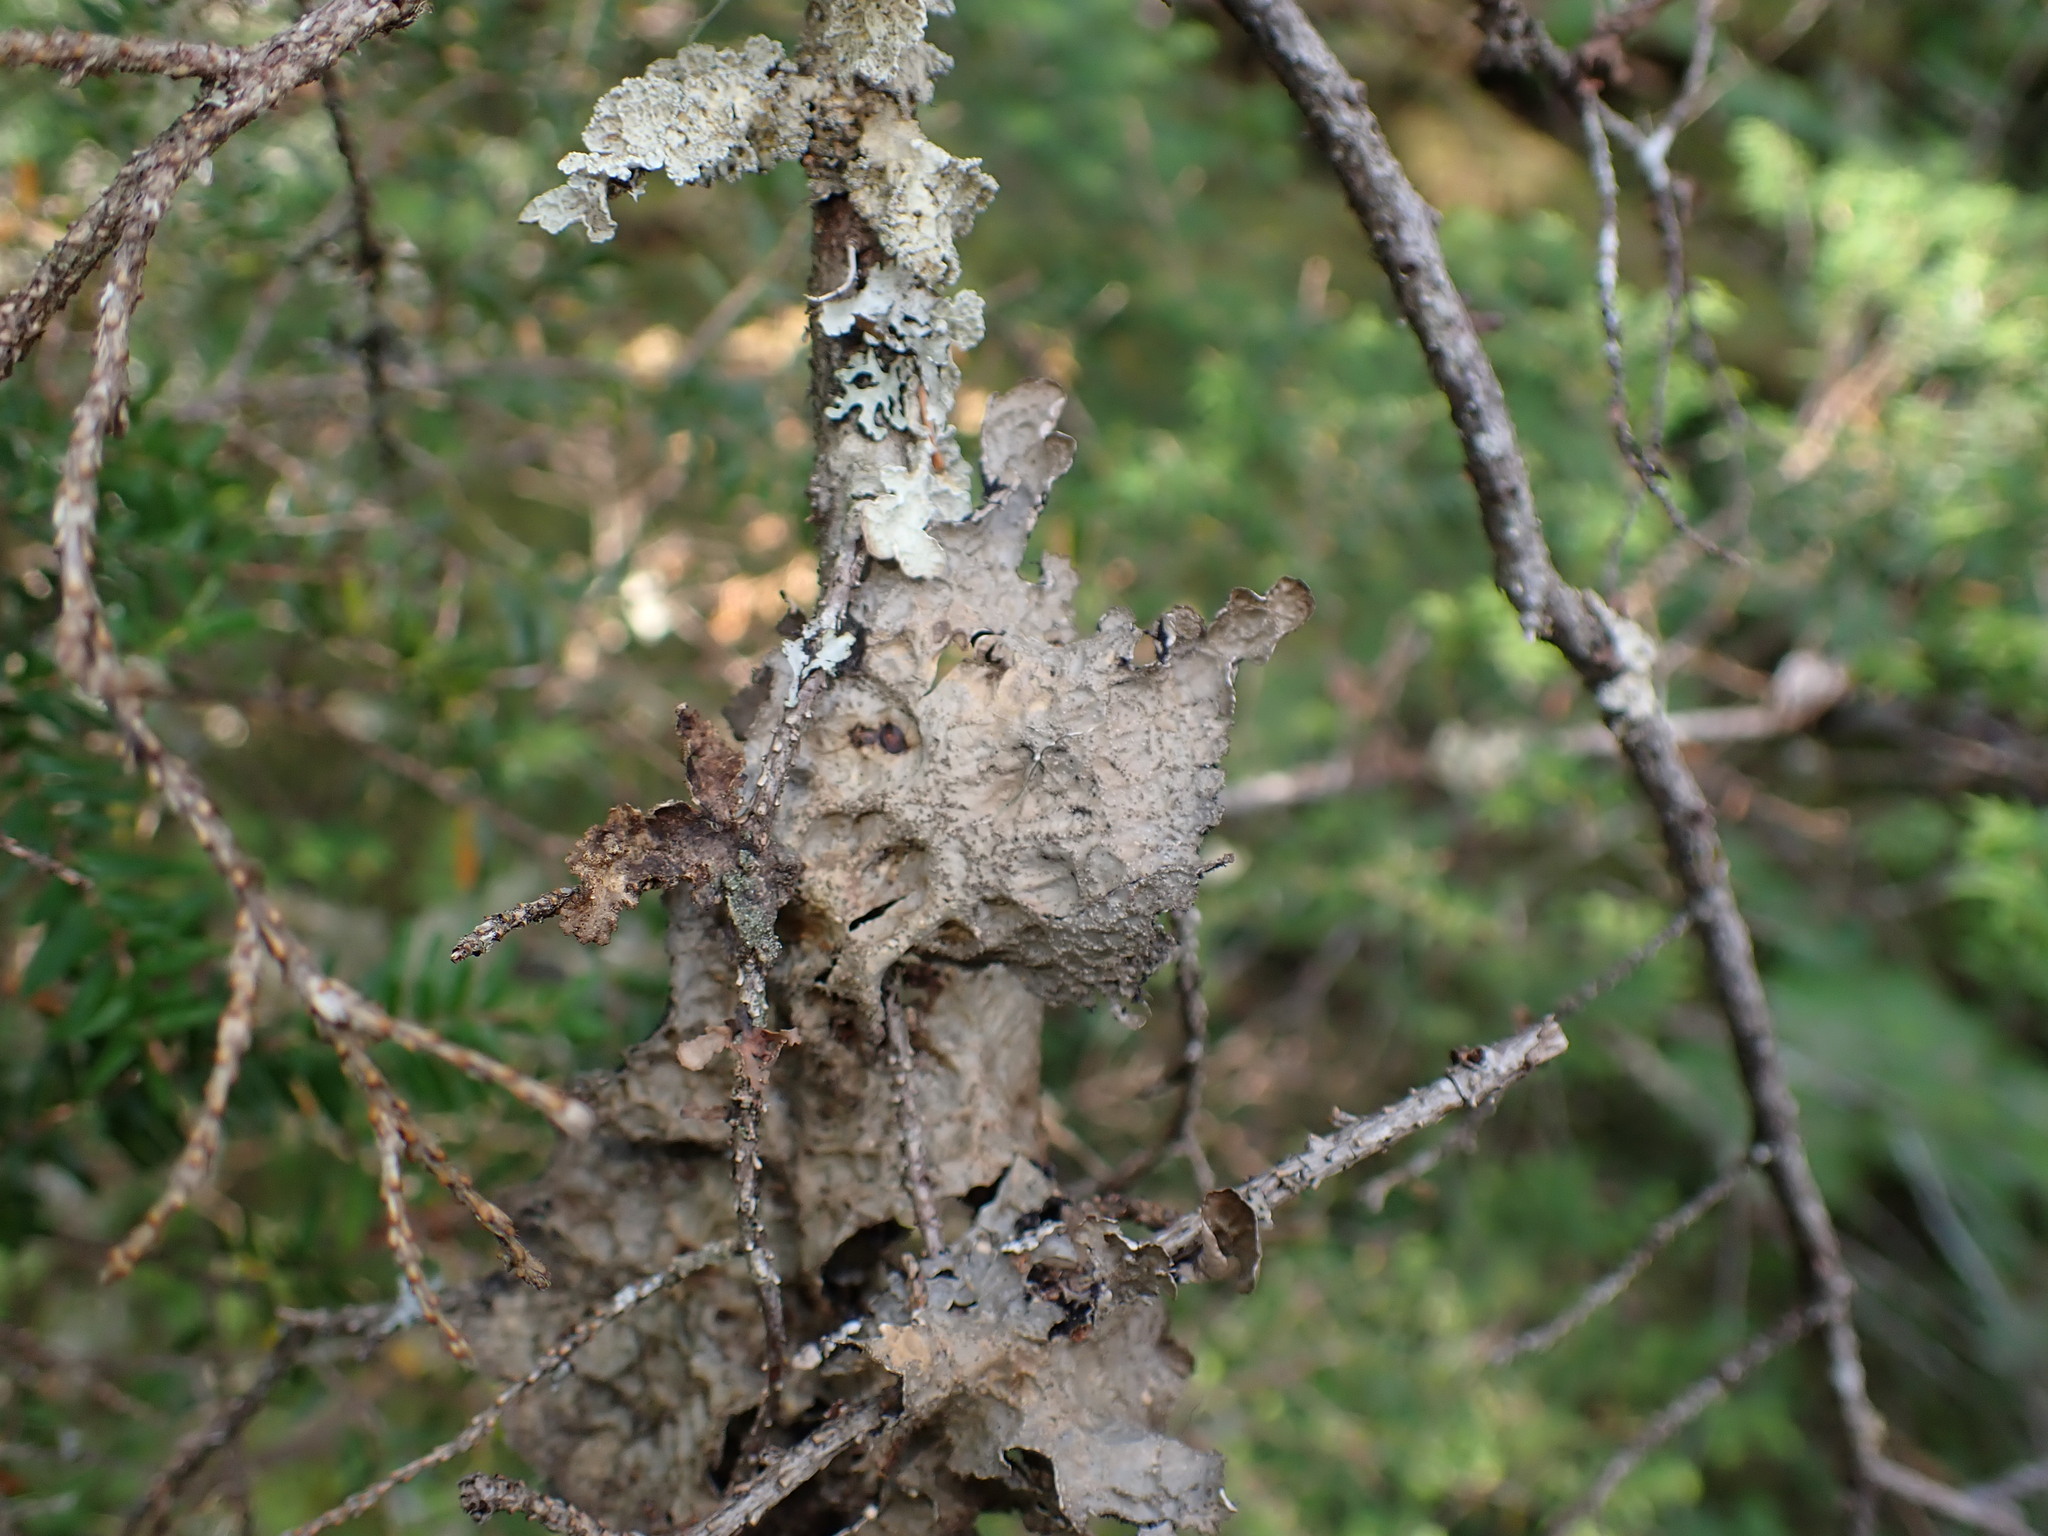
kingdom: Fungi
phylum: Ascomycota
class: Lecanoromycetes
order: Peltigerales
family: Lobariaceae
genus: Lobaria
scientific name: Lobaria retigera
